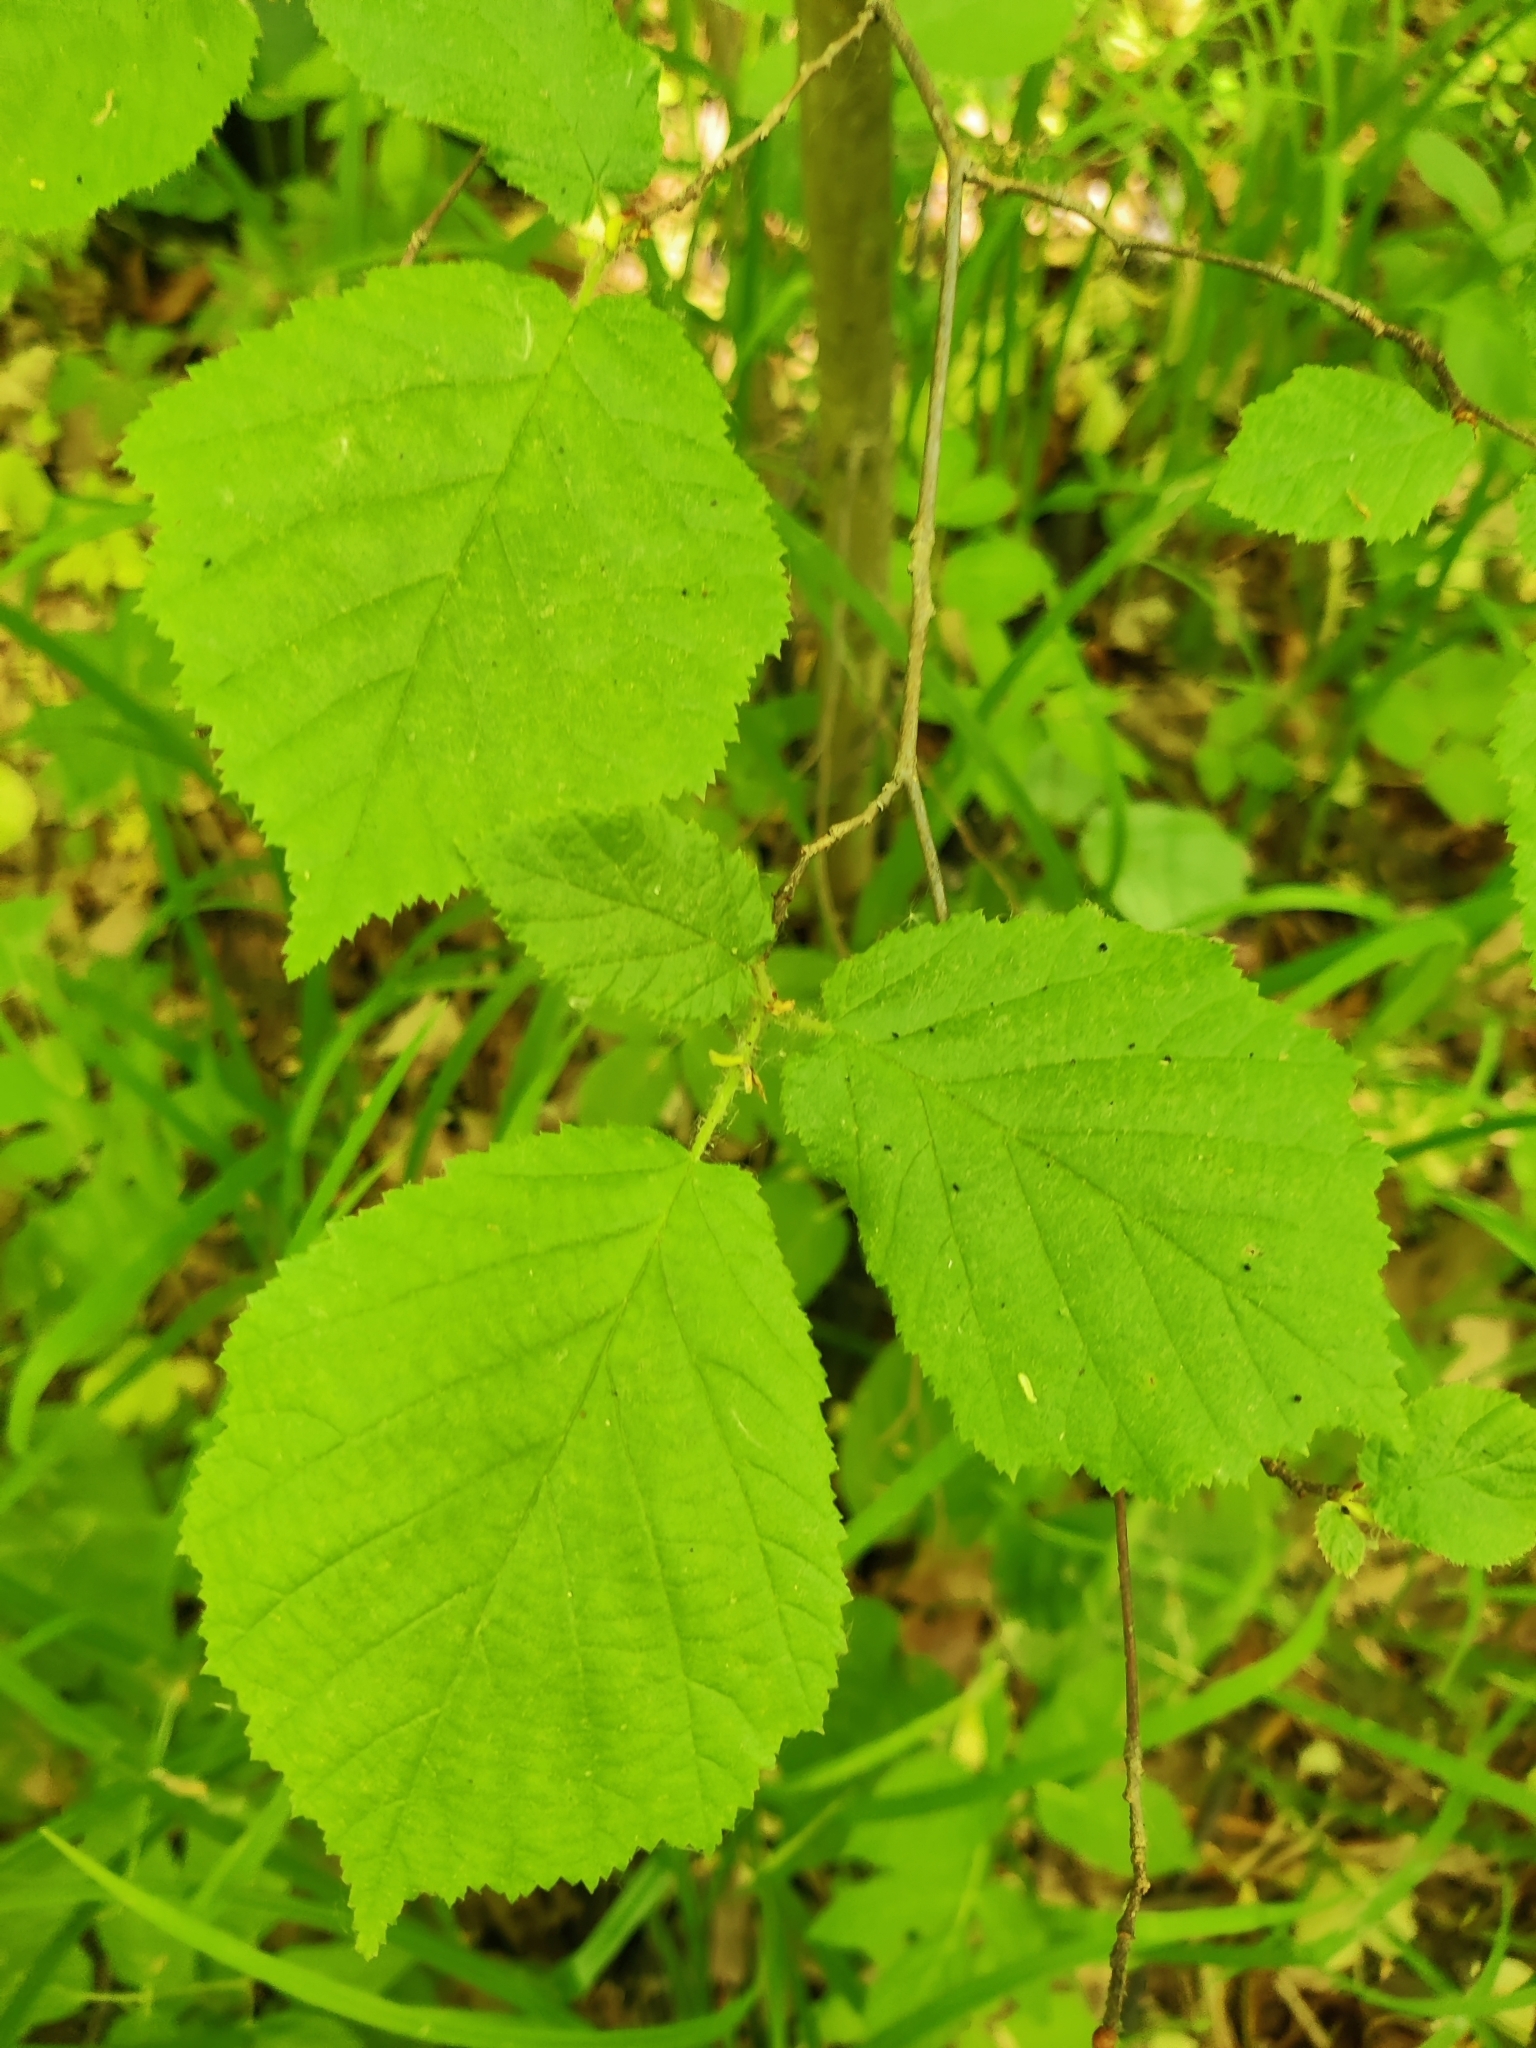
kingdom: Plantae
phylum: Tracheophyta
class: Magnoliopsida
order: Fagales
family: Betulaceae
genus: Corylus
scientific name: Corylus avellana
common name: European hazel
